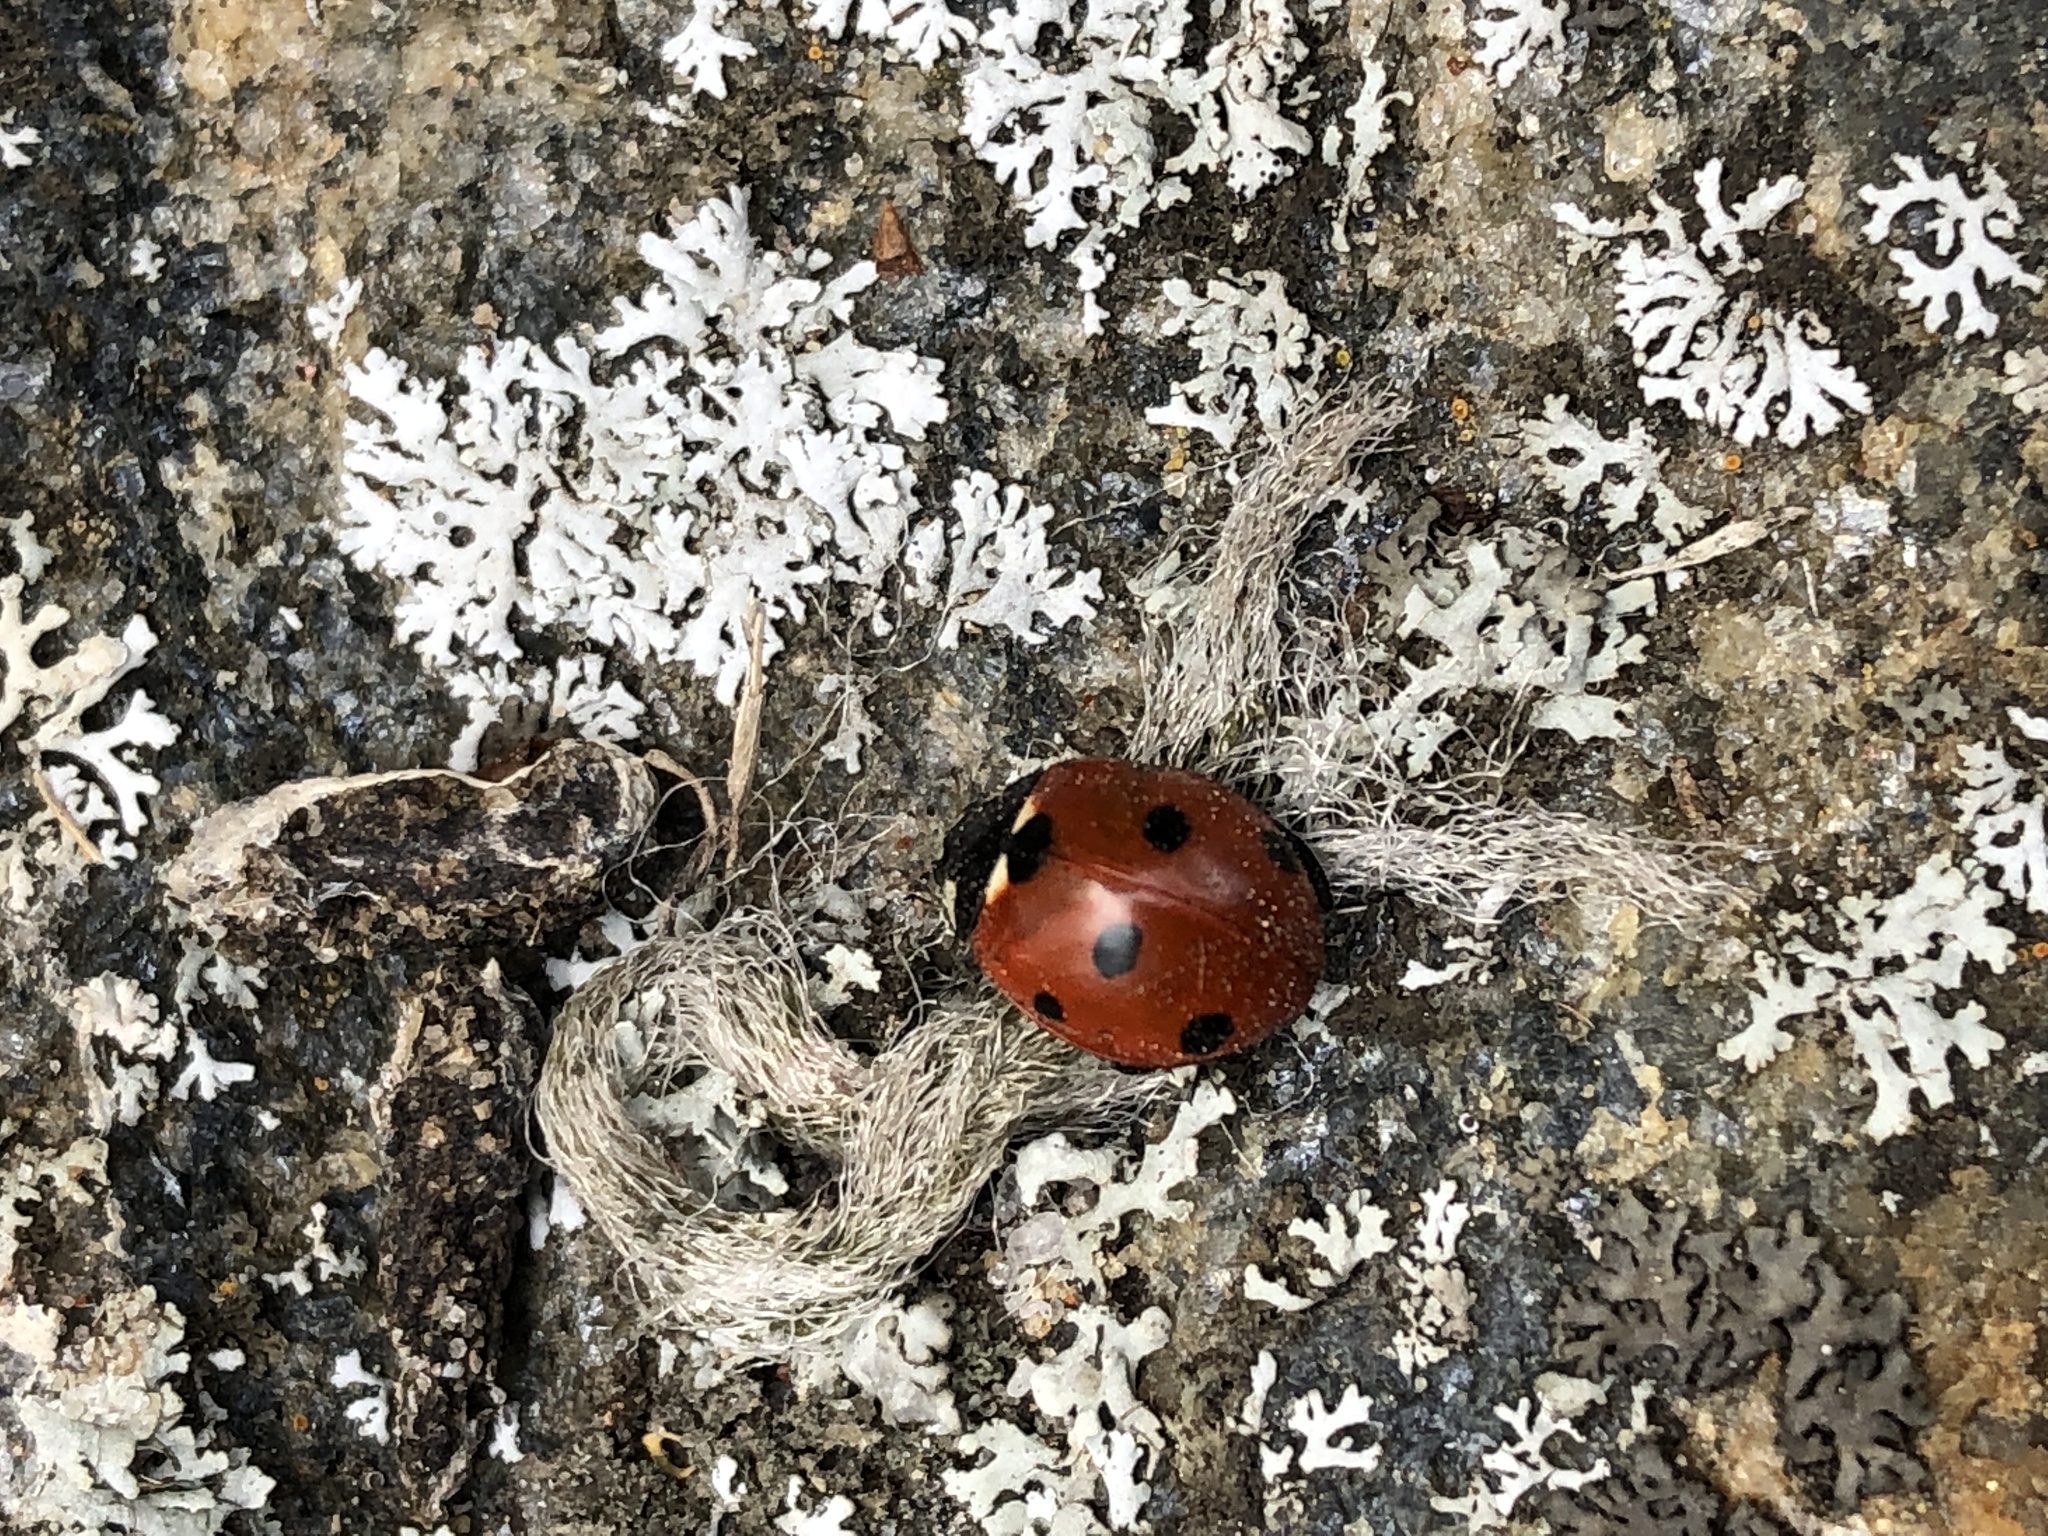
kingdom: Animalia
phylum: Arthropoda
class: Insecta
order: Coleoptera
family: Coccinellidae
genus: Coccinella
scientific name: Coccinella septempunctata
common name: Sevenspotted lady beetle
